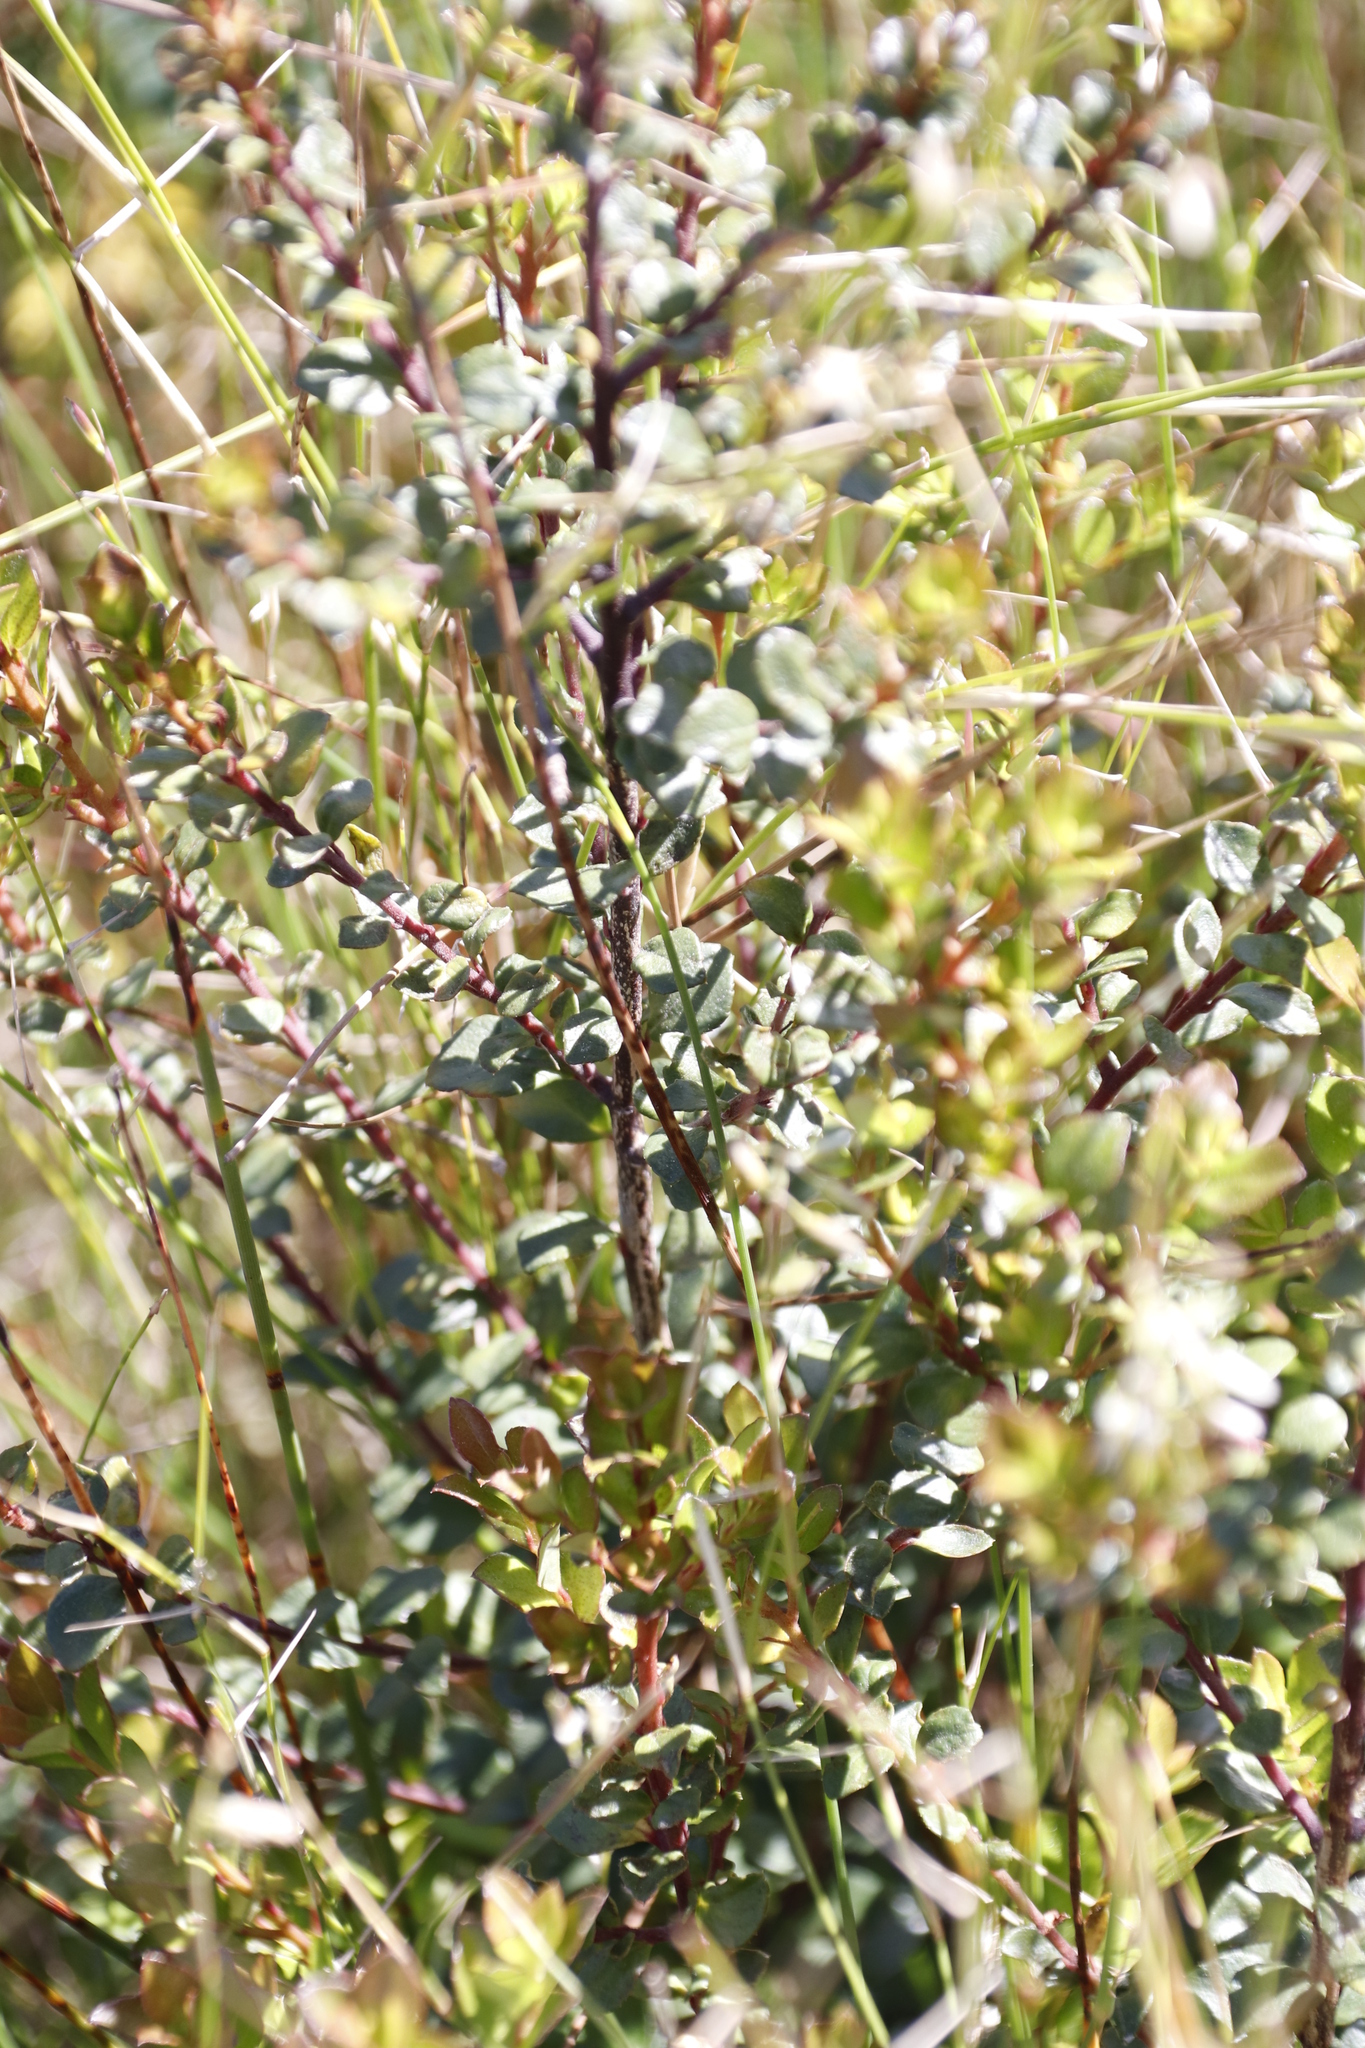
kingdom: Plantae
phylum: Tracheophyta
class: Magnoliopsida
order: Ericales
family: Primulaceae
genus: Myrsine
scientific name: Myrsine africana
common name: African-boxwood
